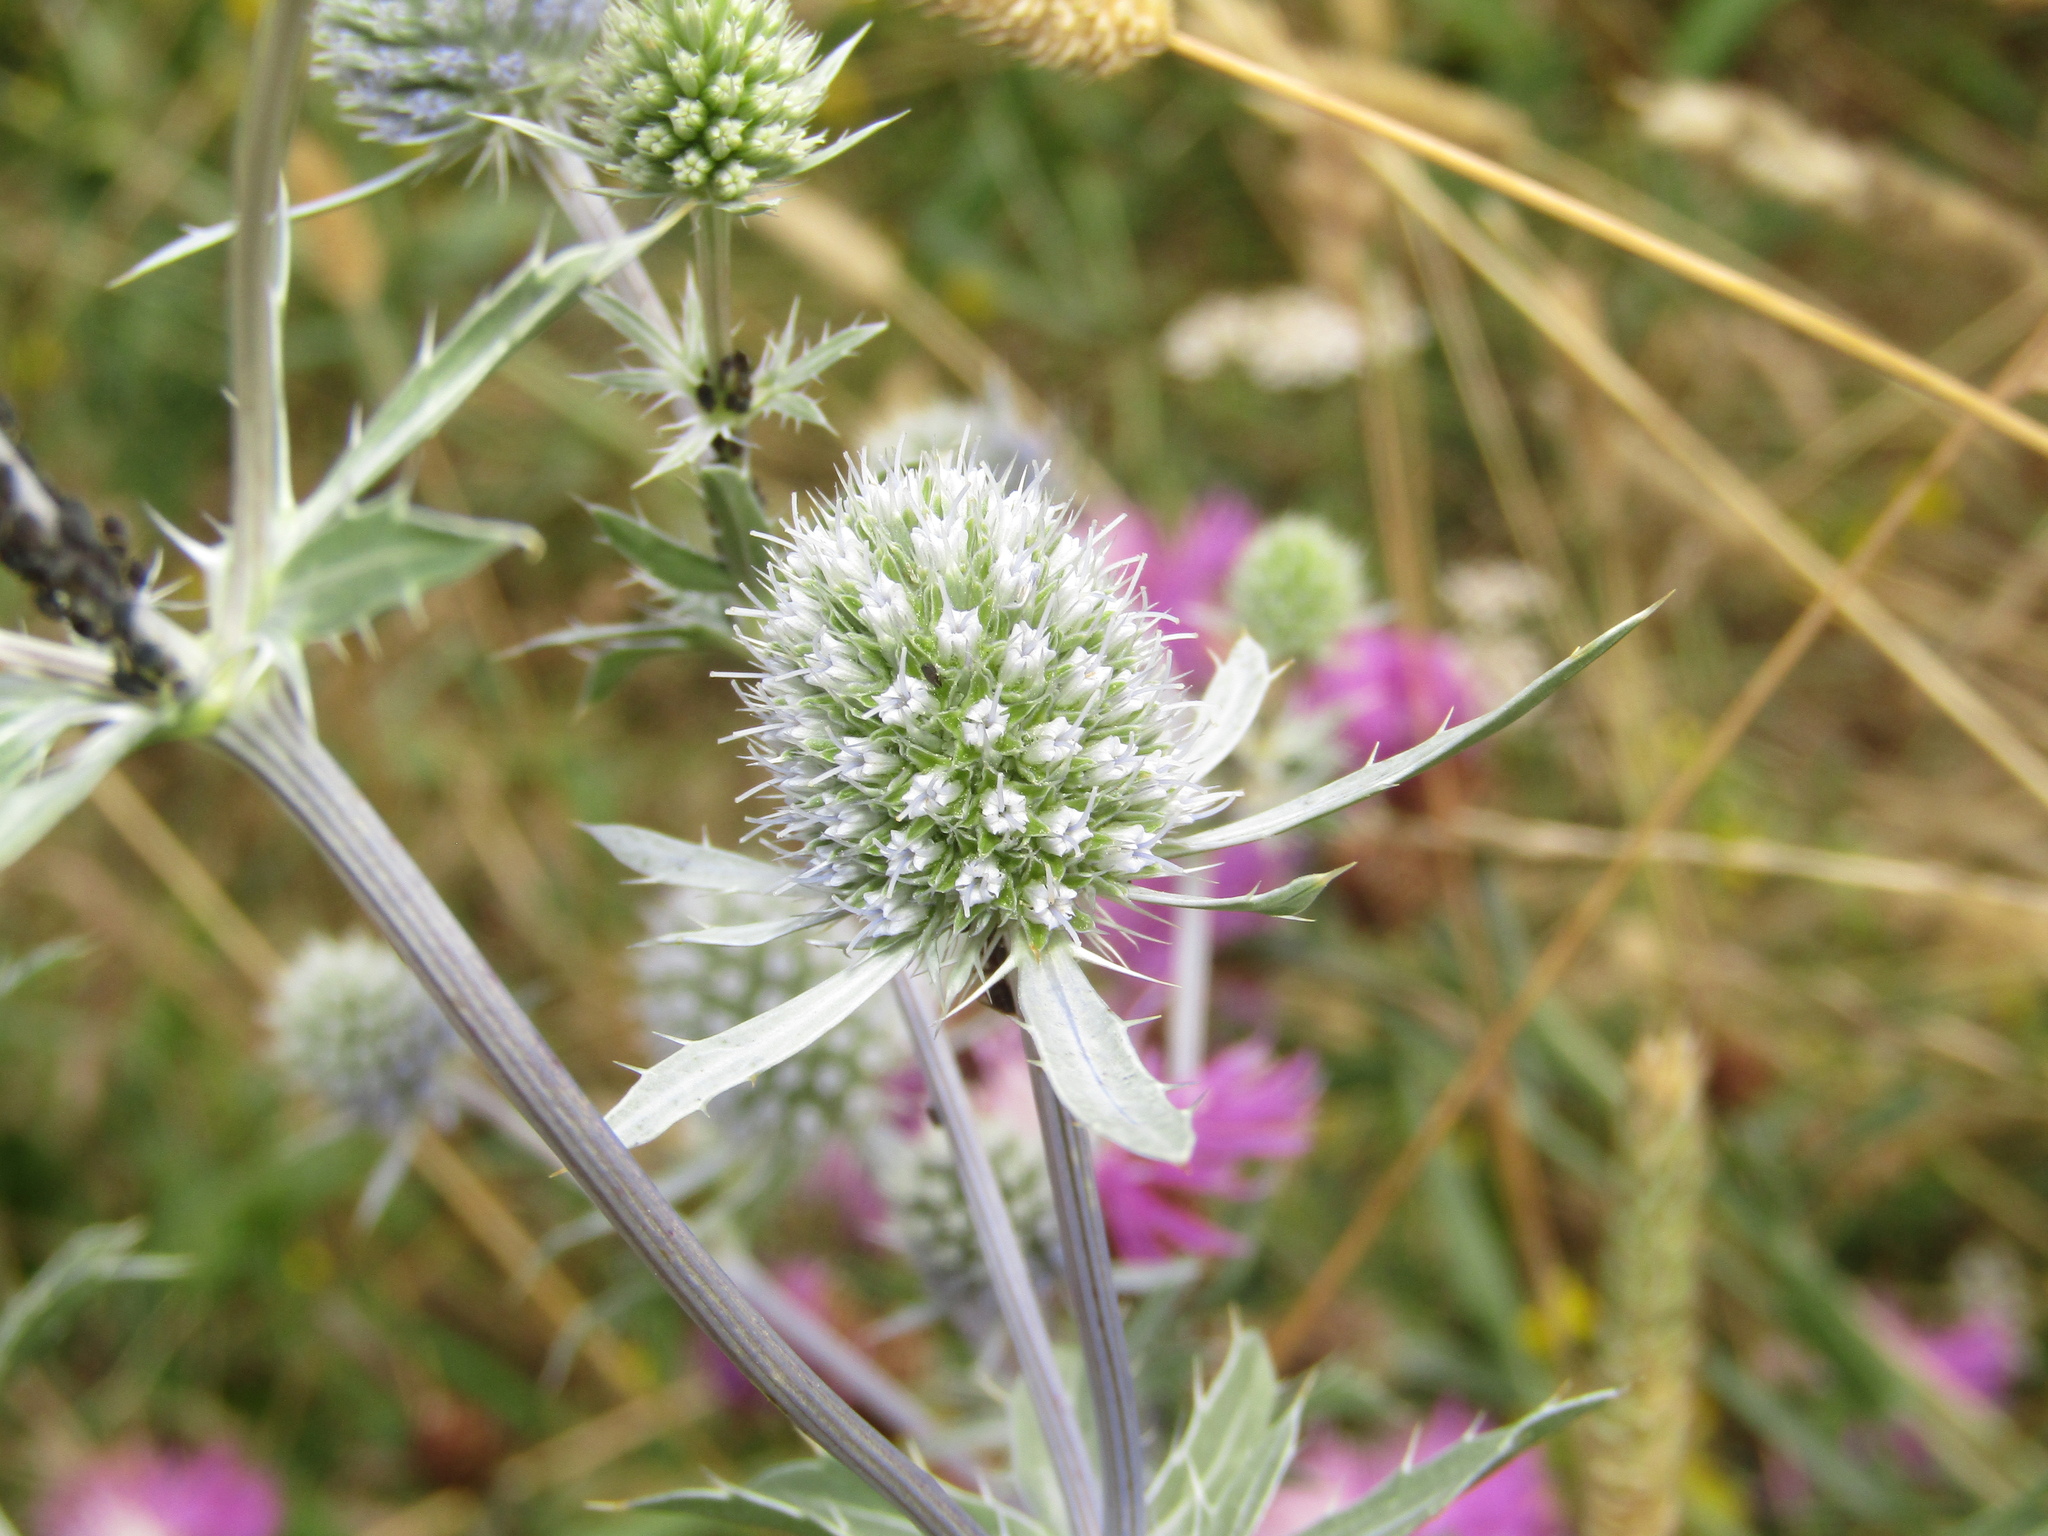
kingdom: Plantae
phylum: Tracheophyta
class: Magnoliopsida
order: Apiales
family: Apiaceae
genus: Eryngium
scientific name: Eryngium planum
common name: Blue eryngo
